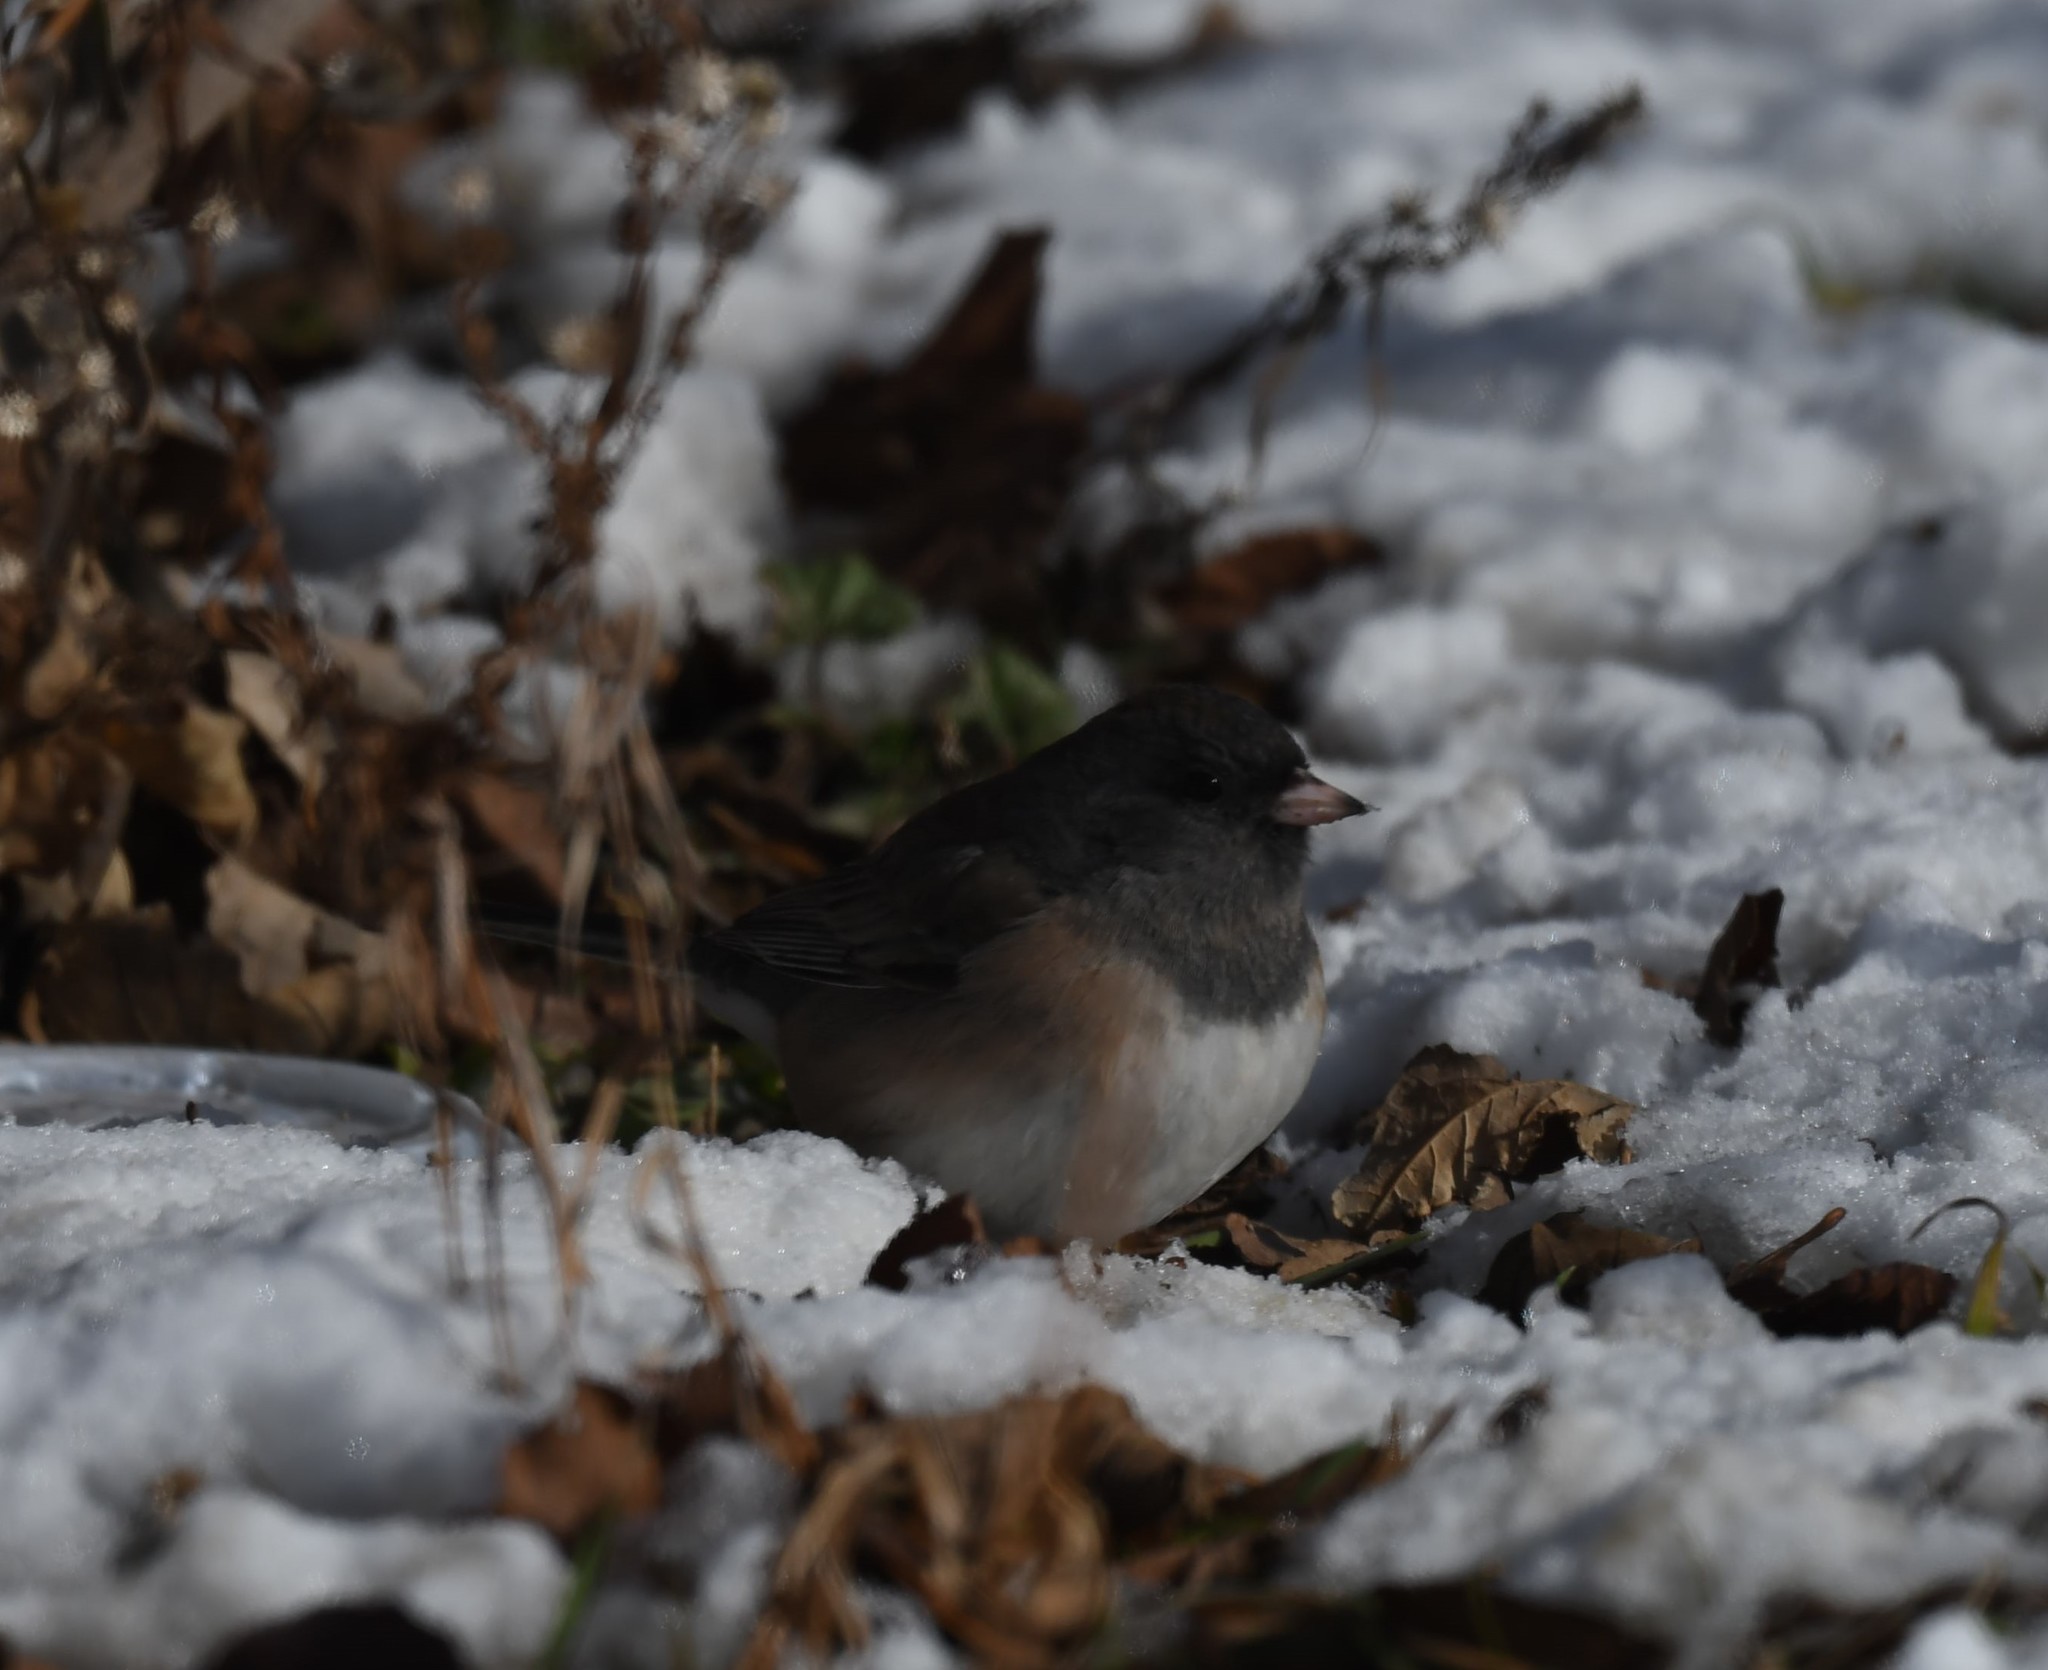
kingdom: Animalia
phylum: Chordata
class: Aves
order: Passeriformes
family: Passerellidae
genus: Junco
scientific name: Junco hyemalis
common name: Dark-eyed junco
